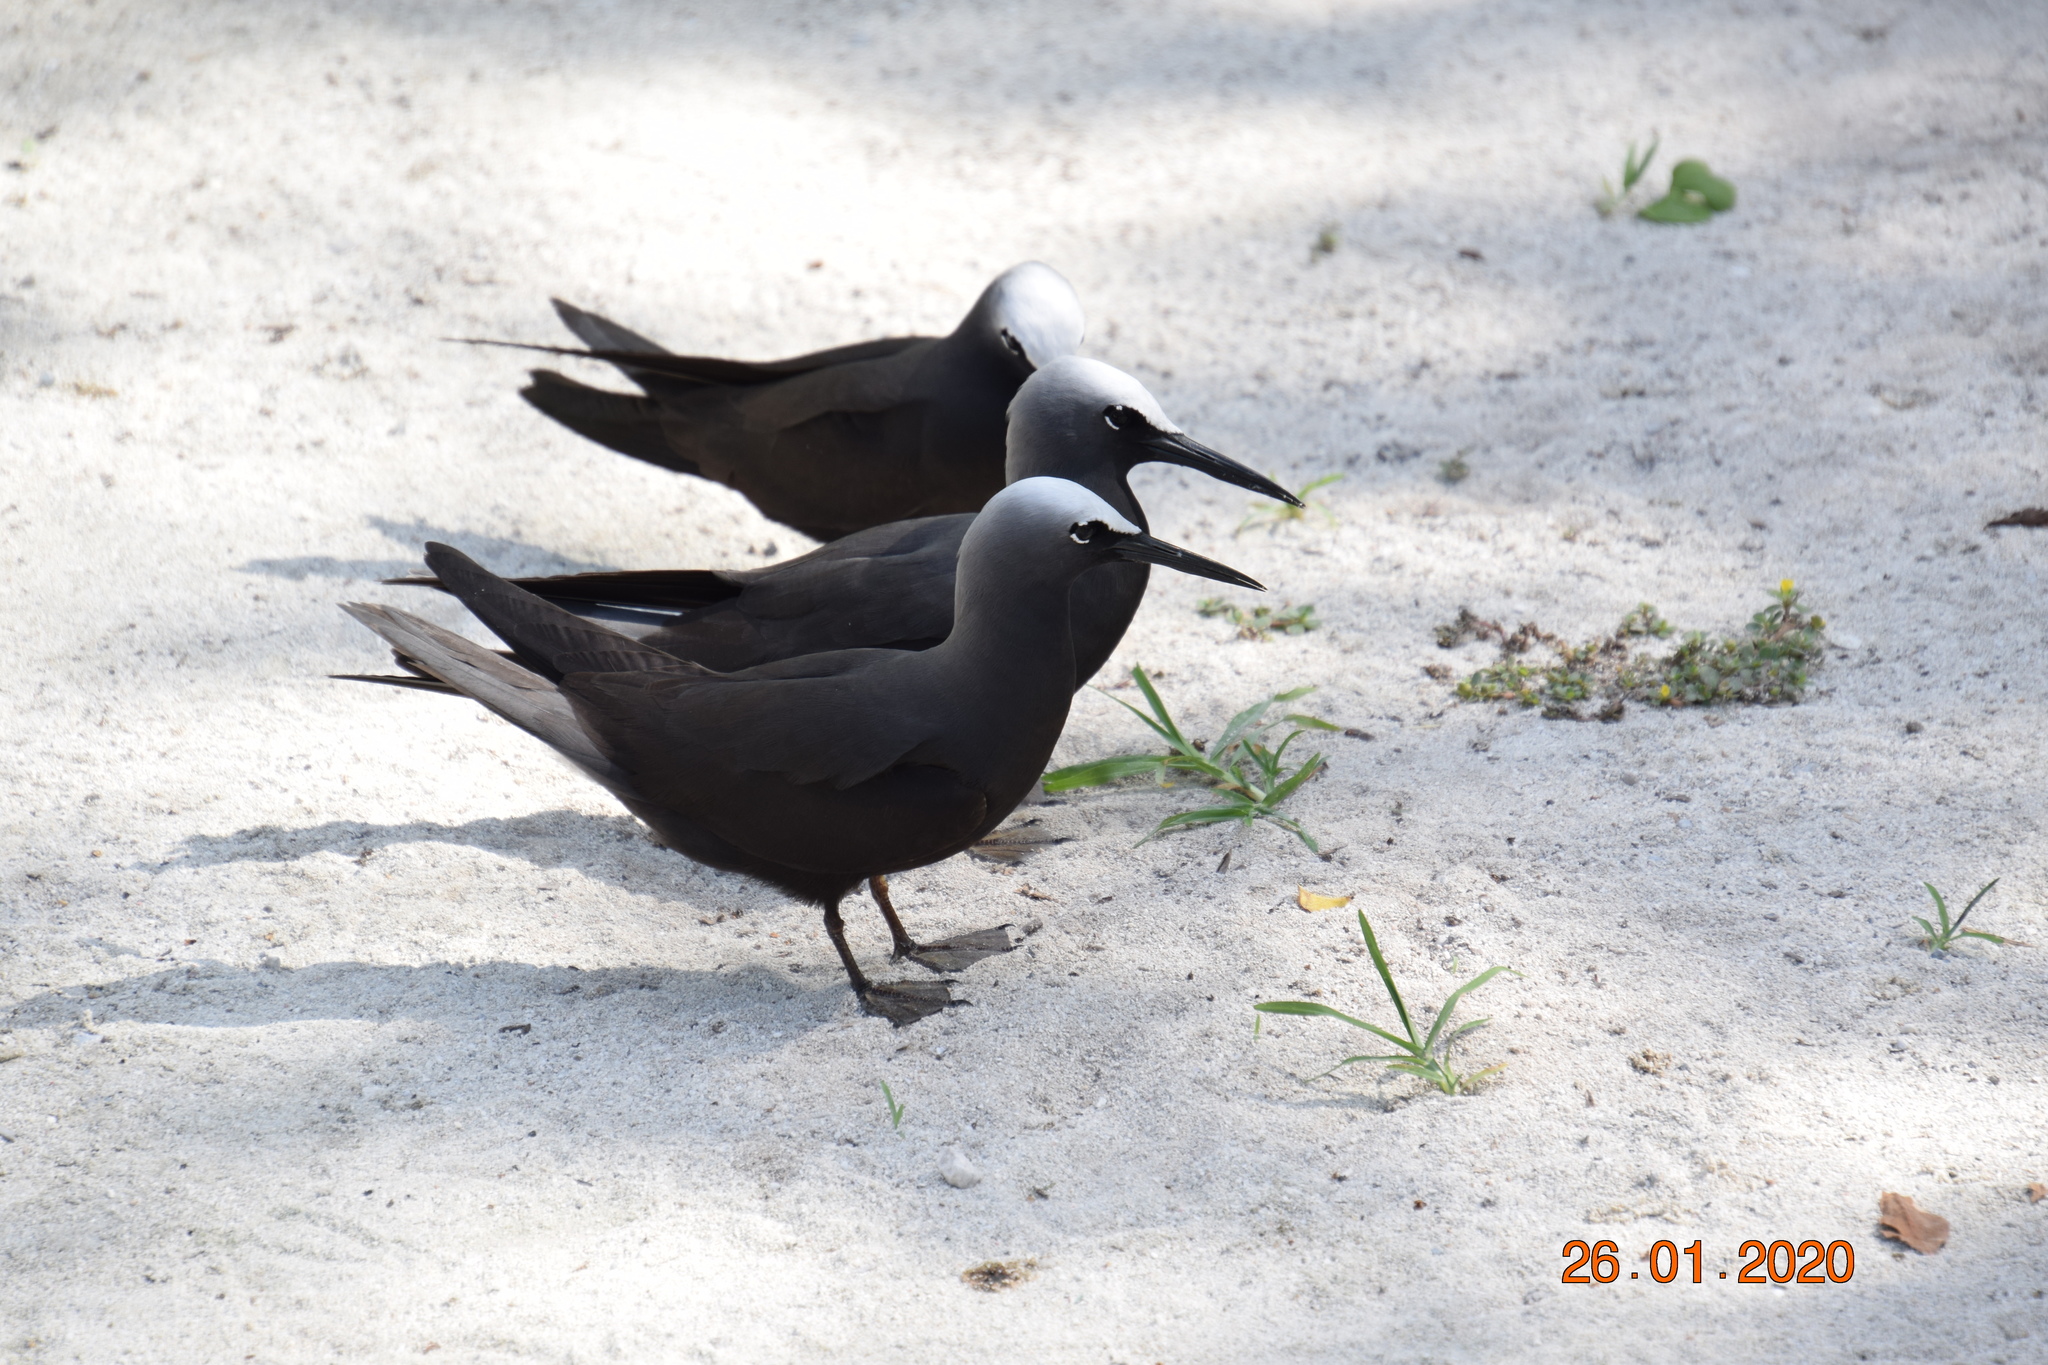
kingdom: Animalia
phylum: Chordata
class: Aves
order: Charadriiformes
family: Laridae
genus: Anous
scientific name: Anous minutus
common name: Black noddy
